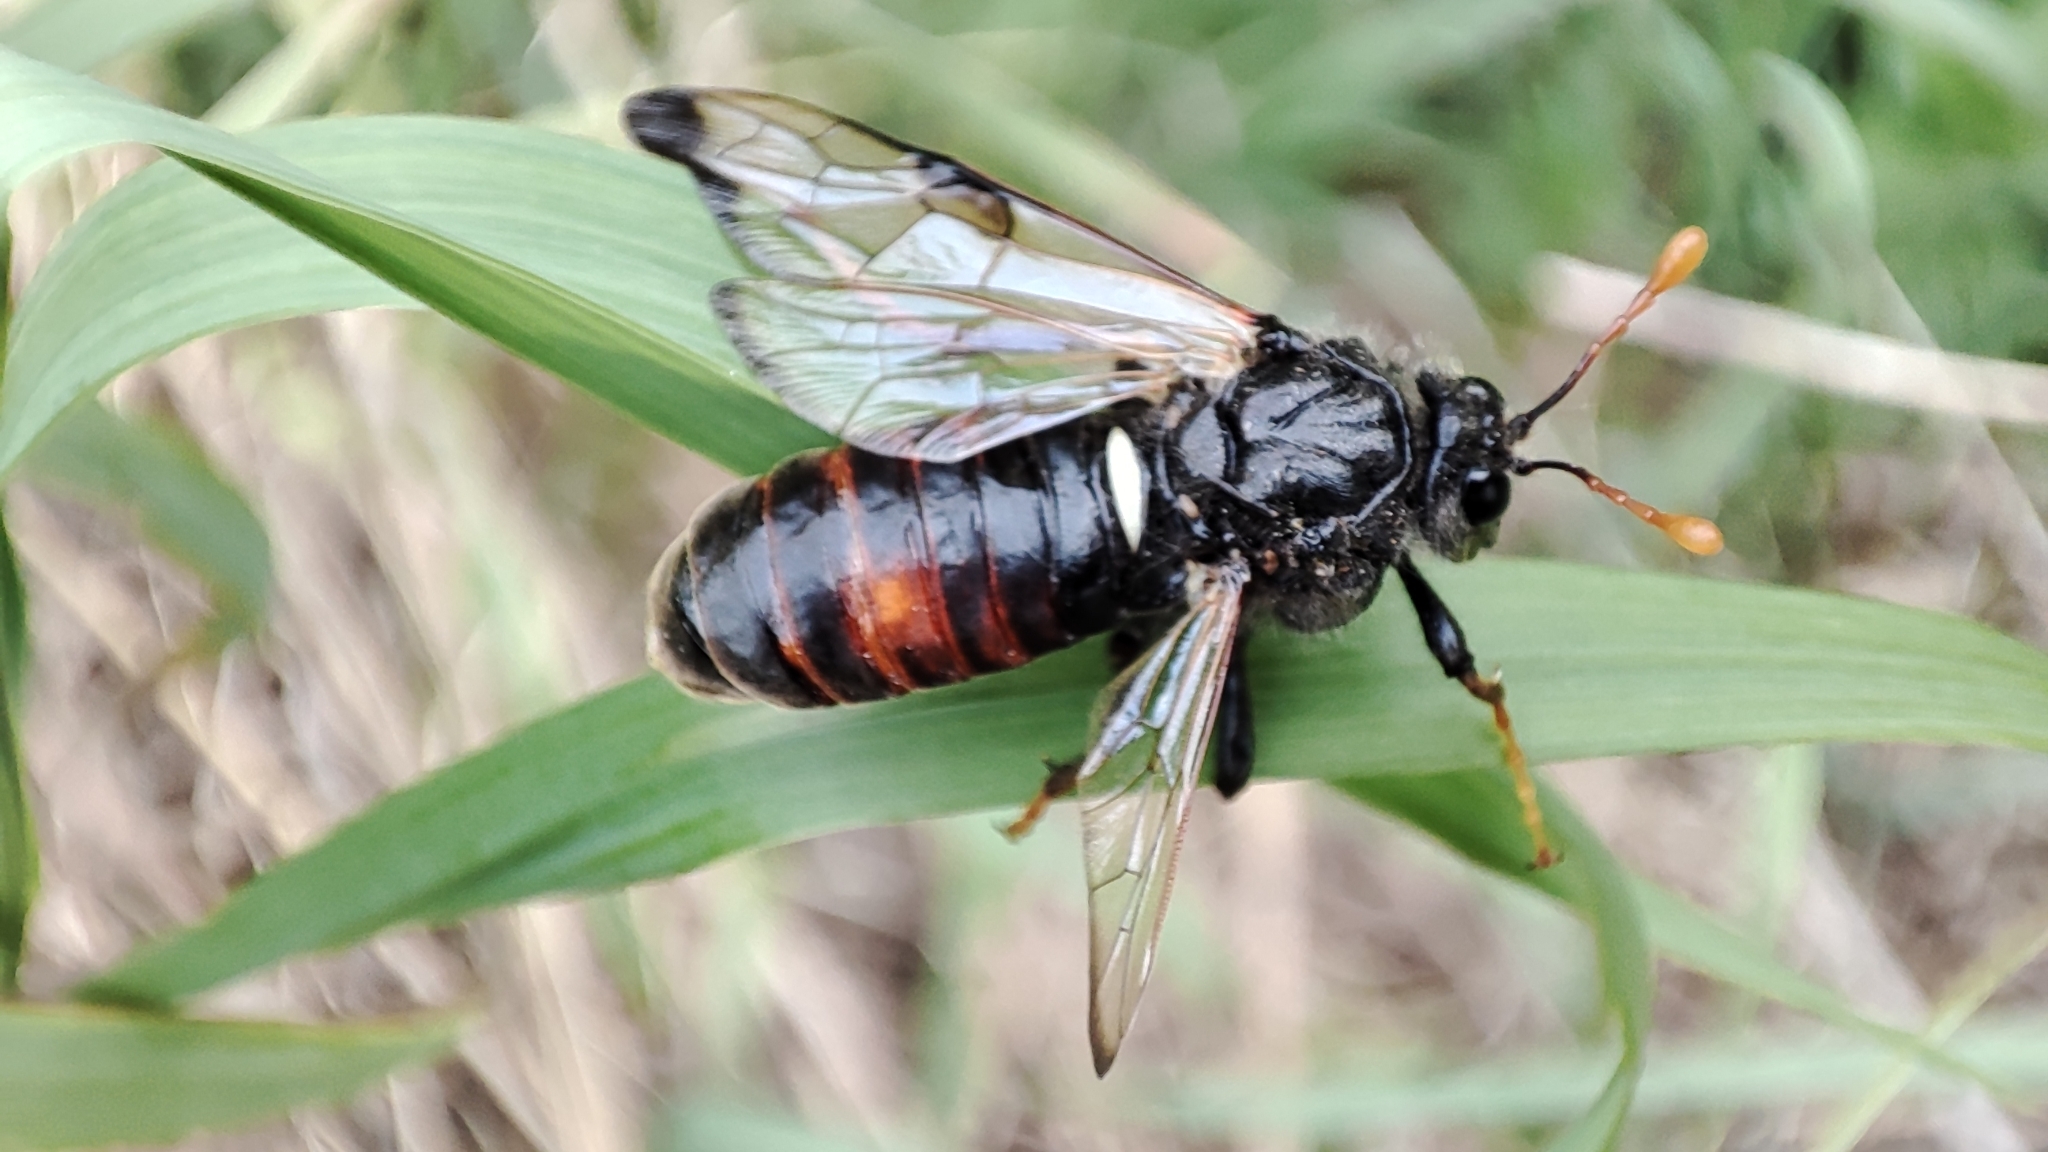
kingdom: Animalia
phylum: Arthropoda
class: Insecta
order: Hymenoptera
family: Cimbicidae
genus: Cimbex
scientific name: Cimbex femoratus
